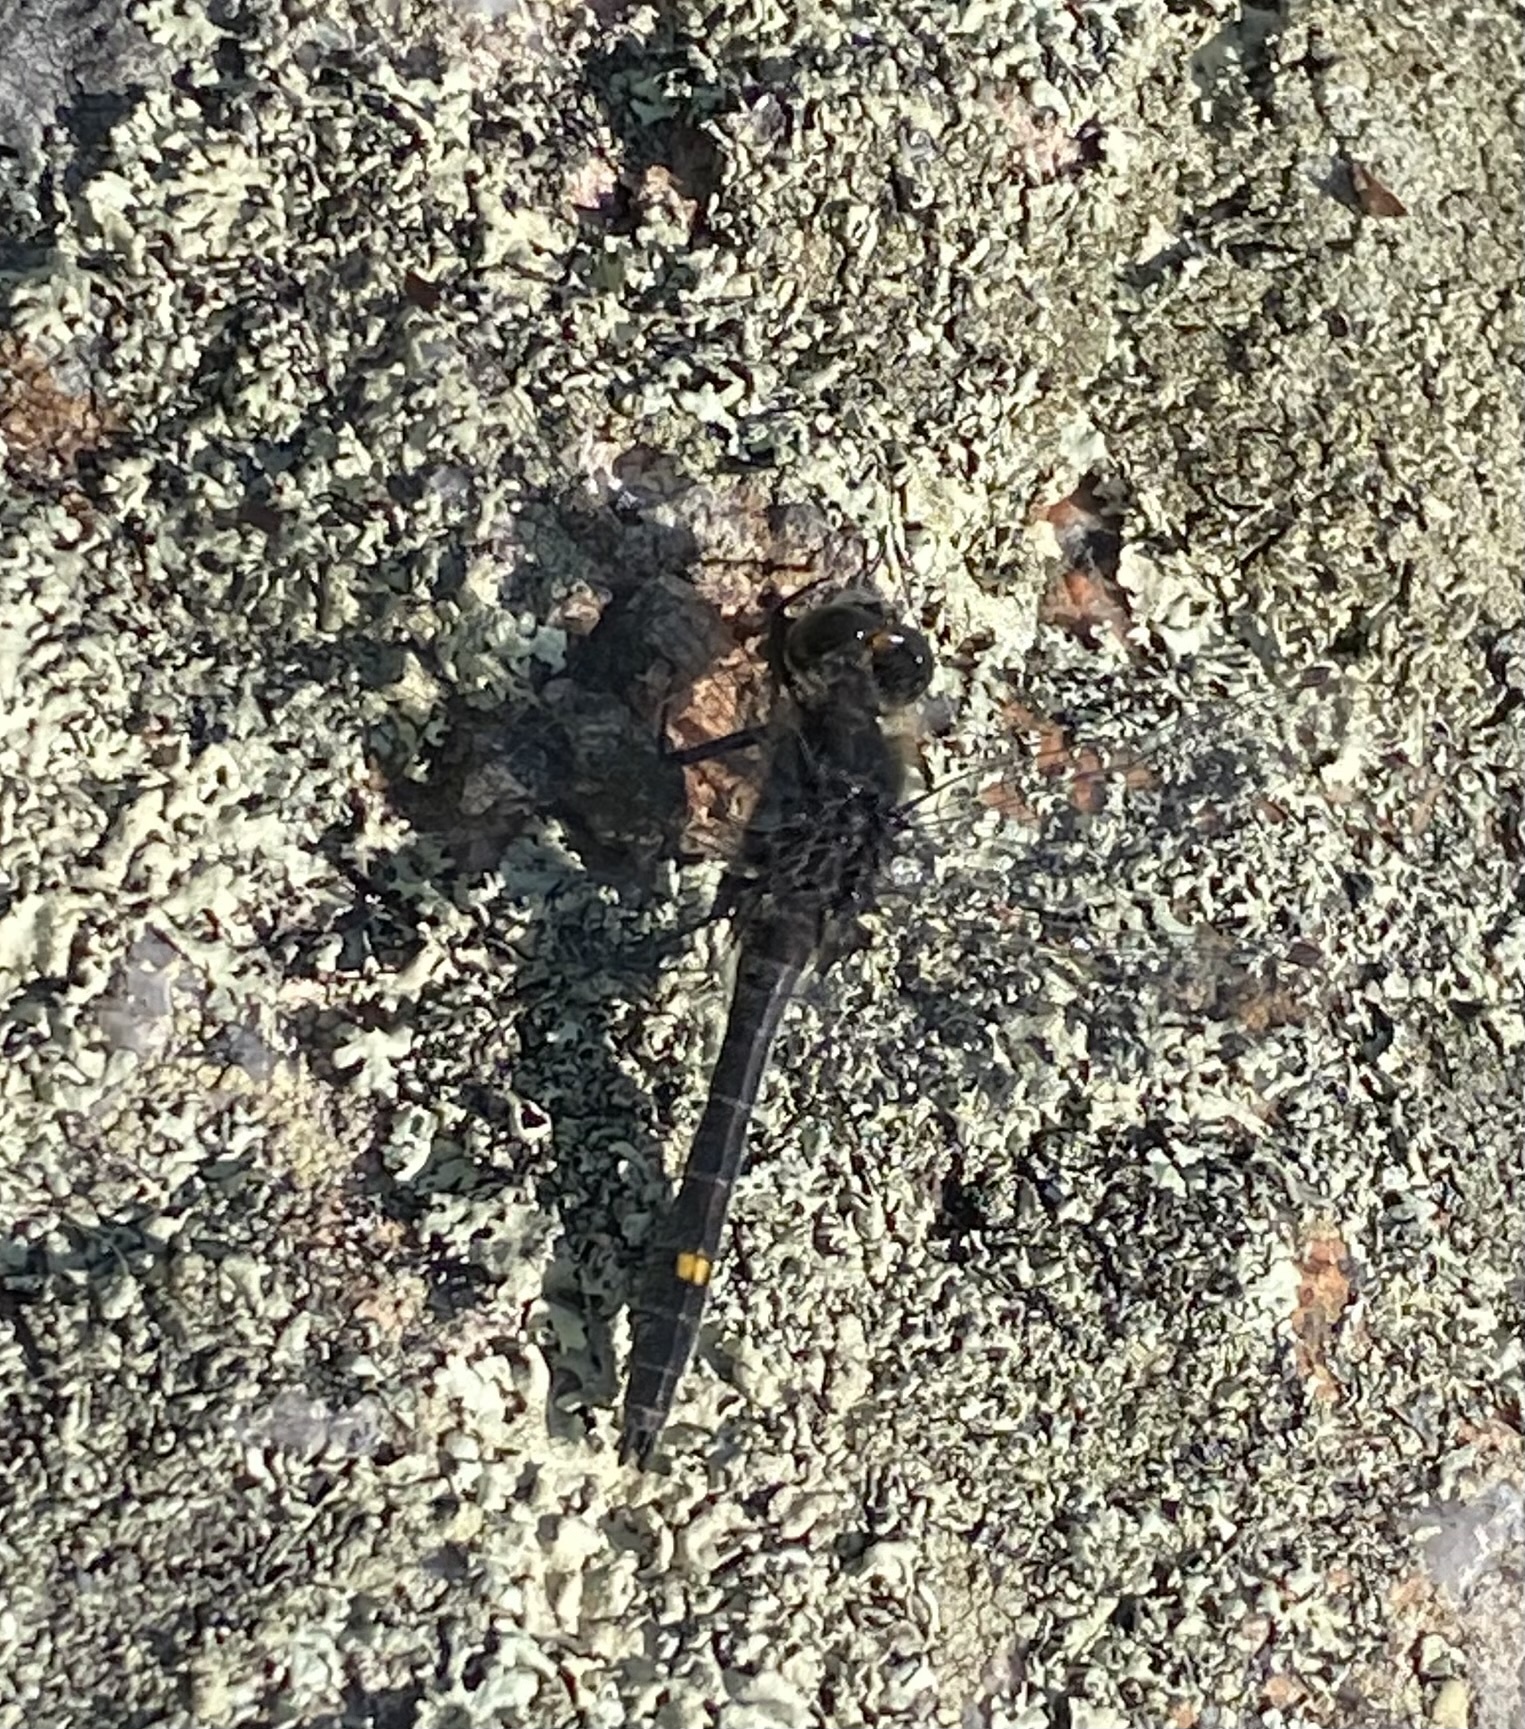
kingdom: Animalia
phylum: Arthropoda
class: Insecta
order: Odonata
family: Libellulidae
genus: Leucorrhinia
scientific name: Leucorrhinia intacta
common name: Dot-tailed whiteface
